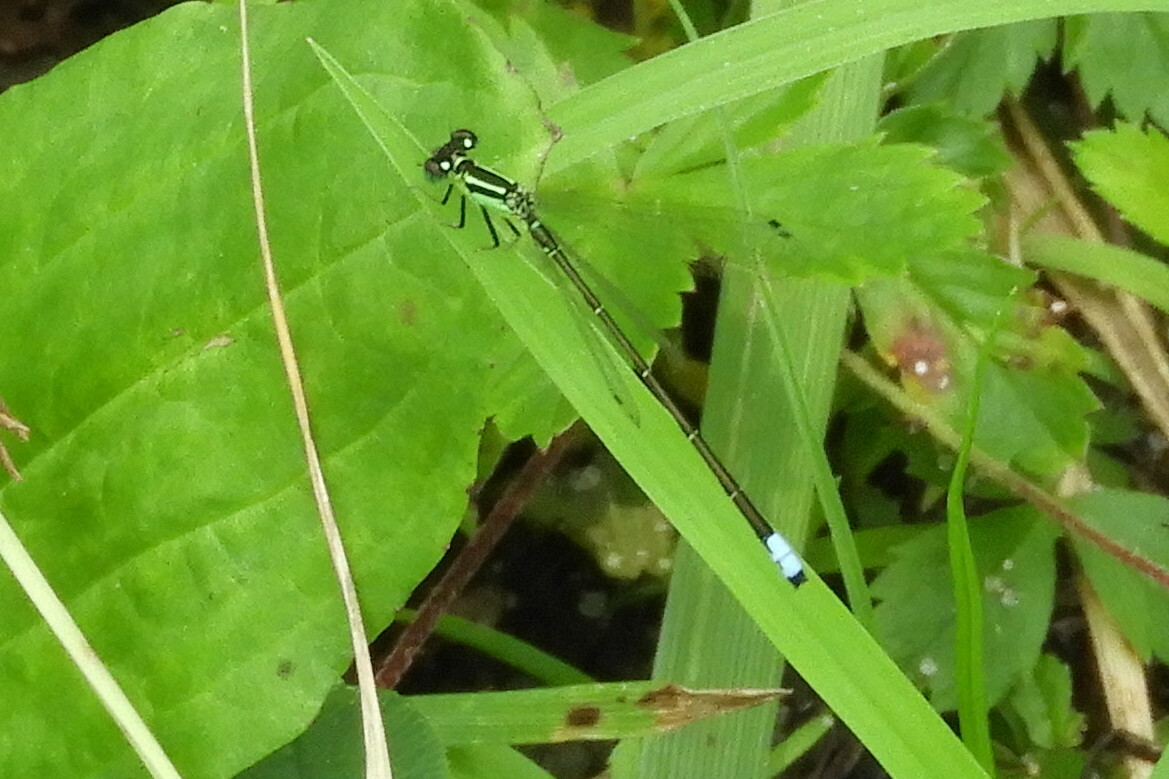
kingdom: Animalia
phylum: Arthropoda
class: Insecta
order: Odonata
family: Coenagrionidae
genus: Ischnura
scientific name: Ischnura verticalis
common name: Eastern forktail
